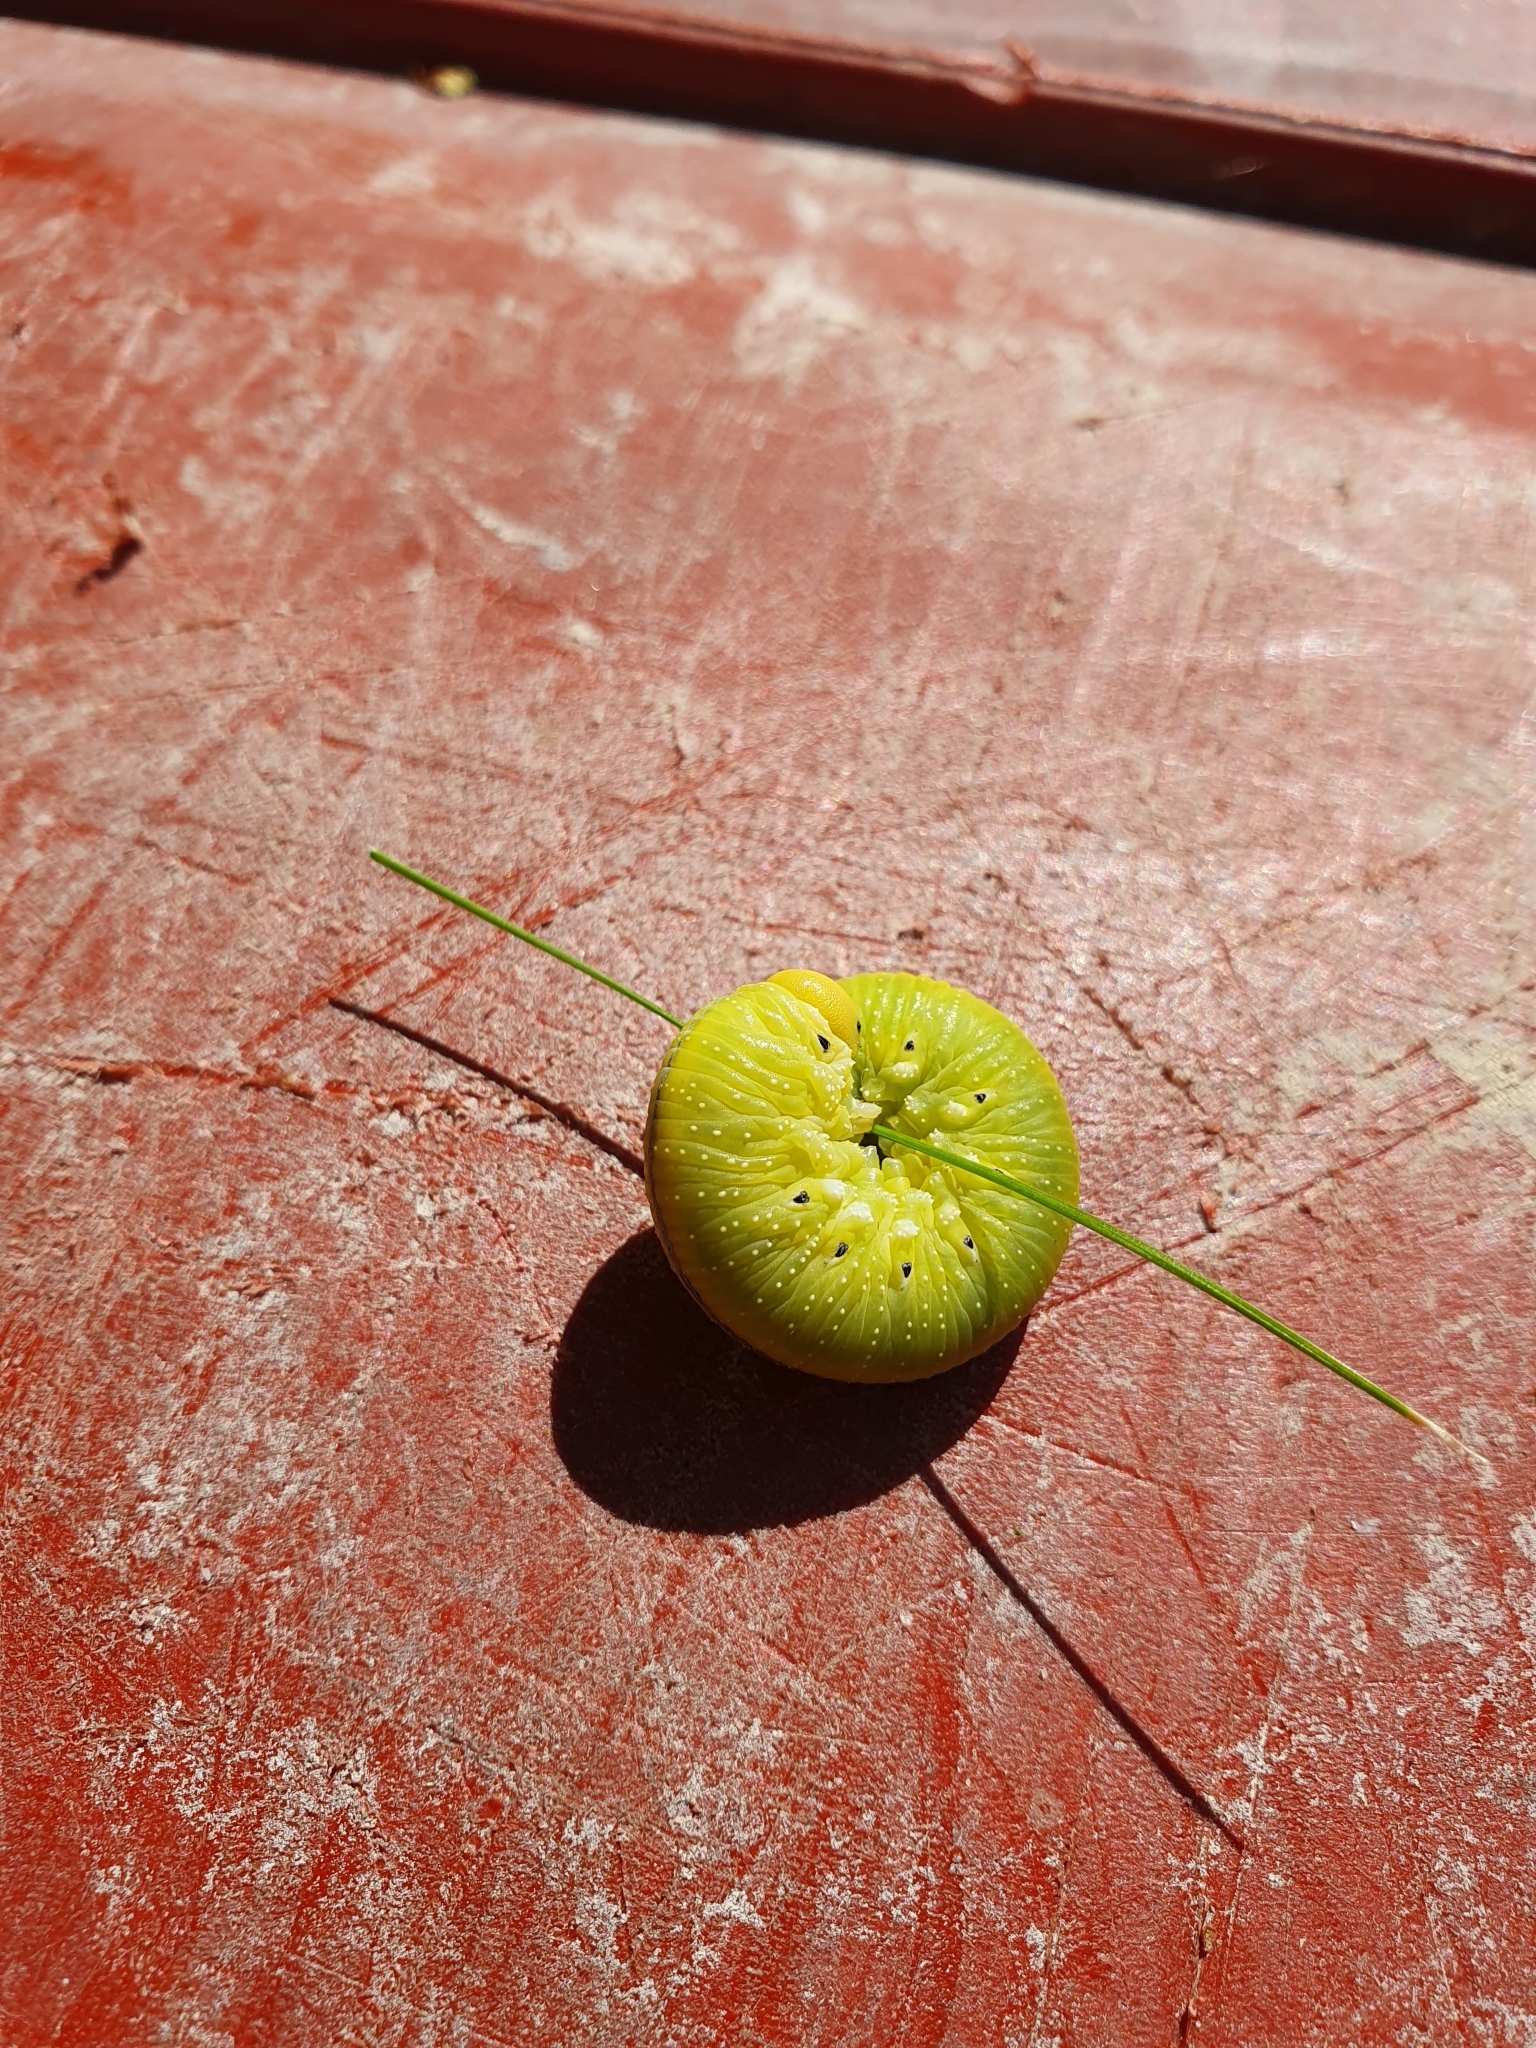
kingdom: Animalia
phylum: Arthropoda
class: Insecta
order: Hymenoptera
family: Cimbicidae
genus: Cimbex
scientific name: Cimbex femoratus
